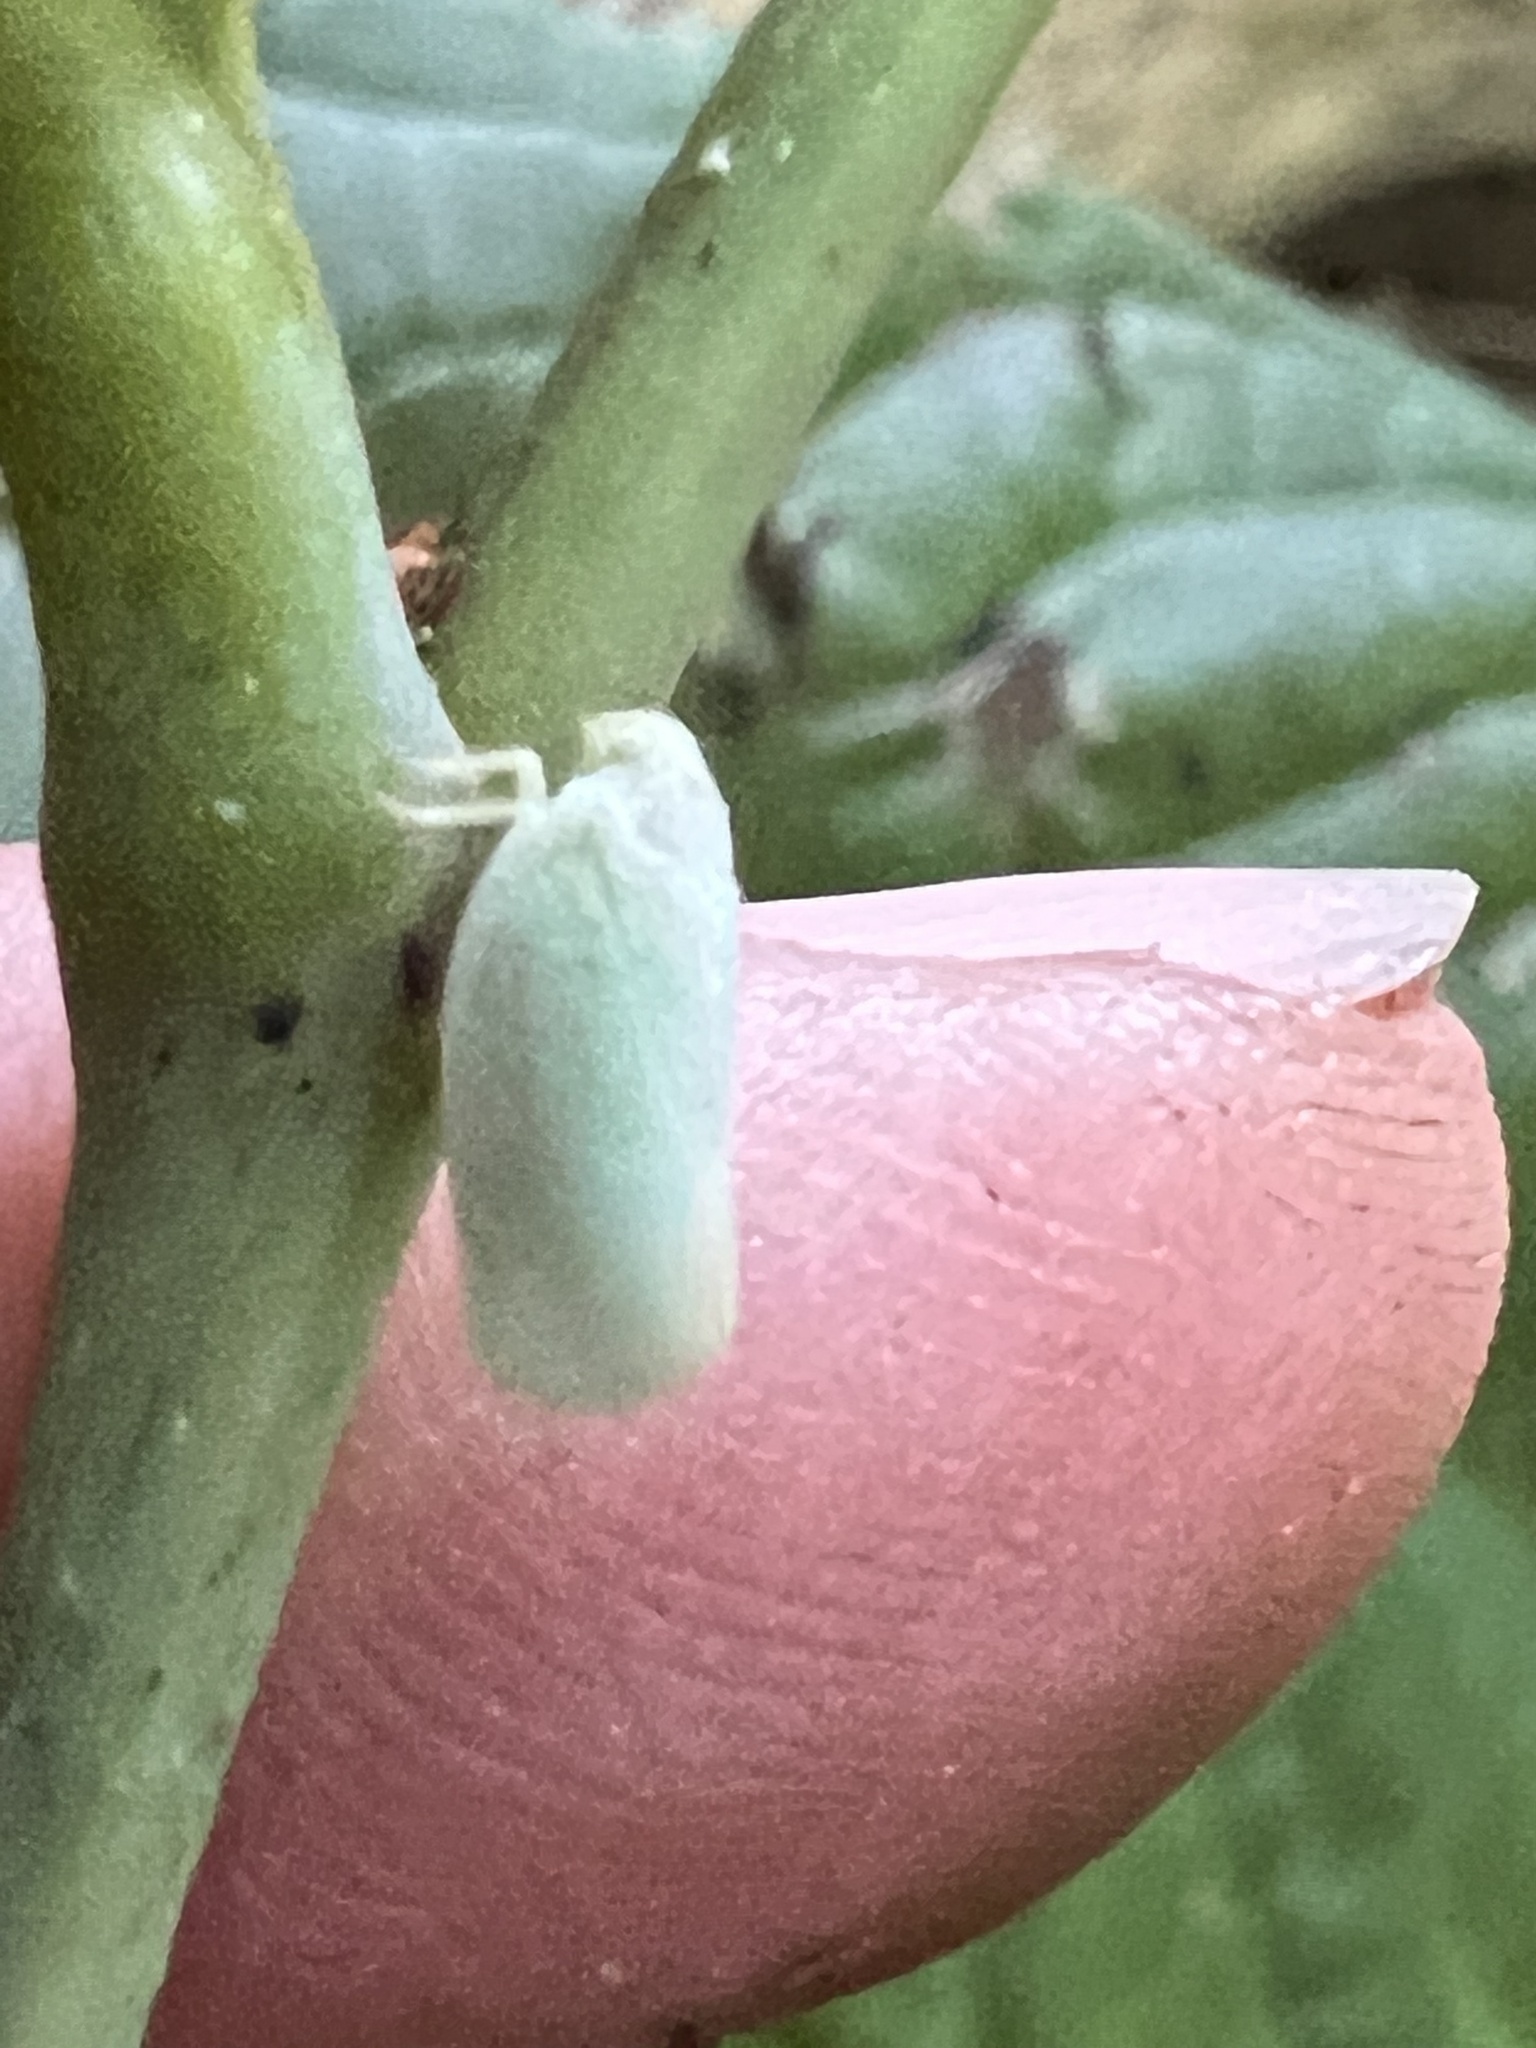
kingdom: Animalia
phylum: Arthropoda
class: Insecta
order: Hemiptera
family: Flatidae
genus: Ormenoides
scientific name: Ormenoides venusta
